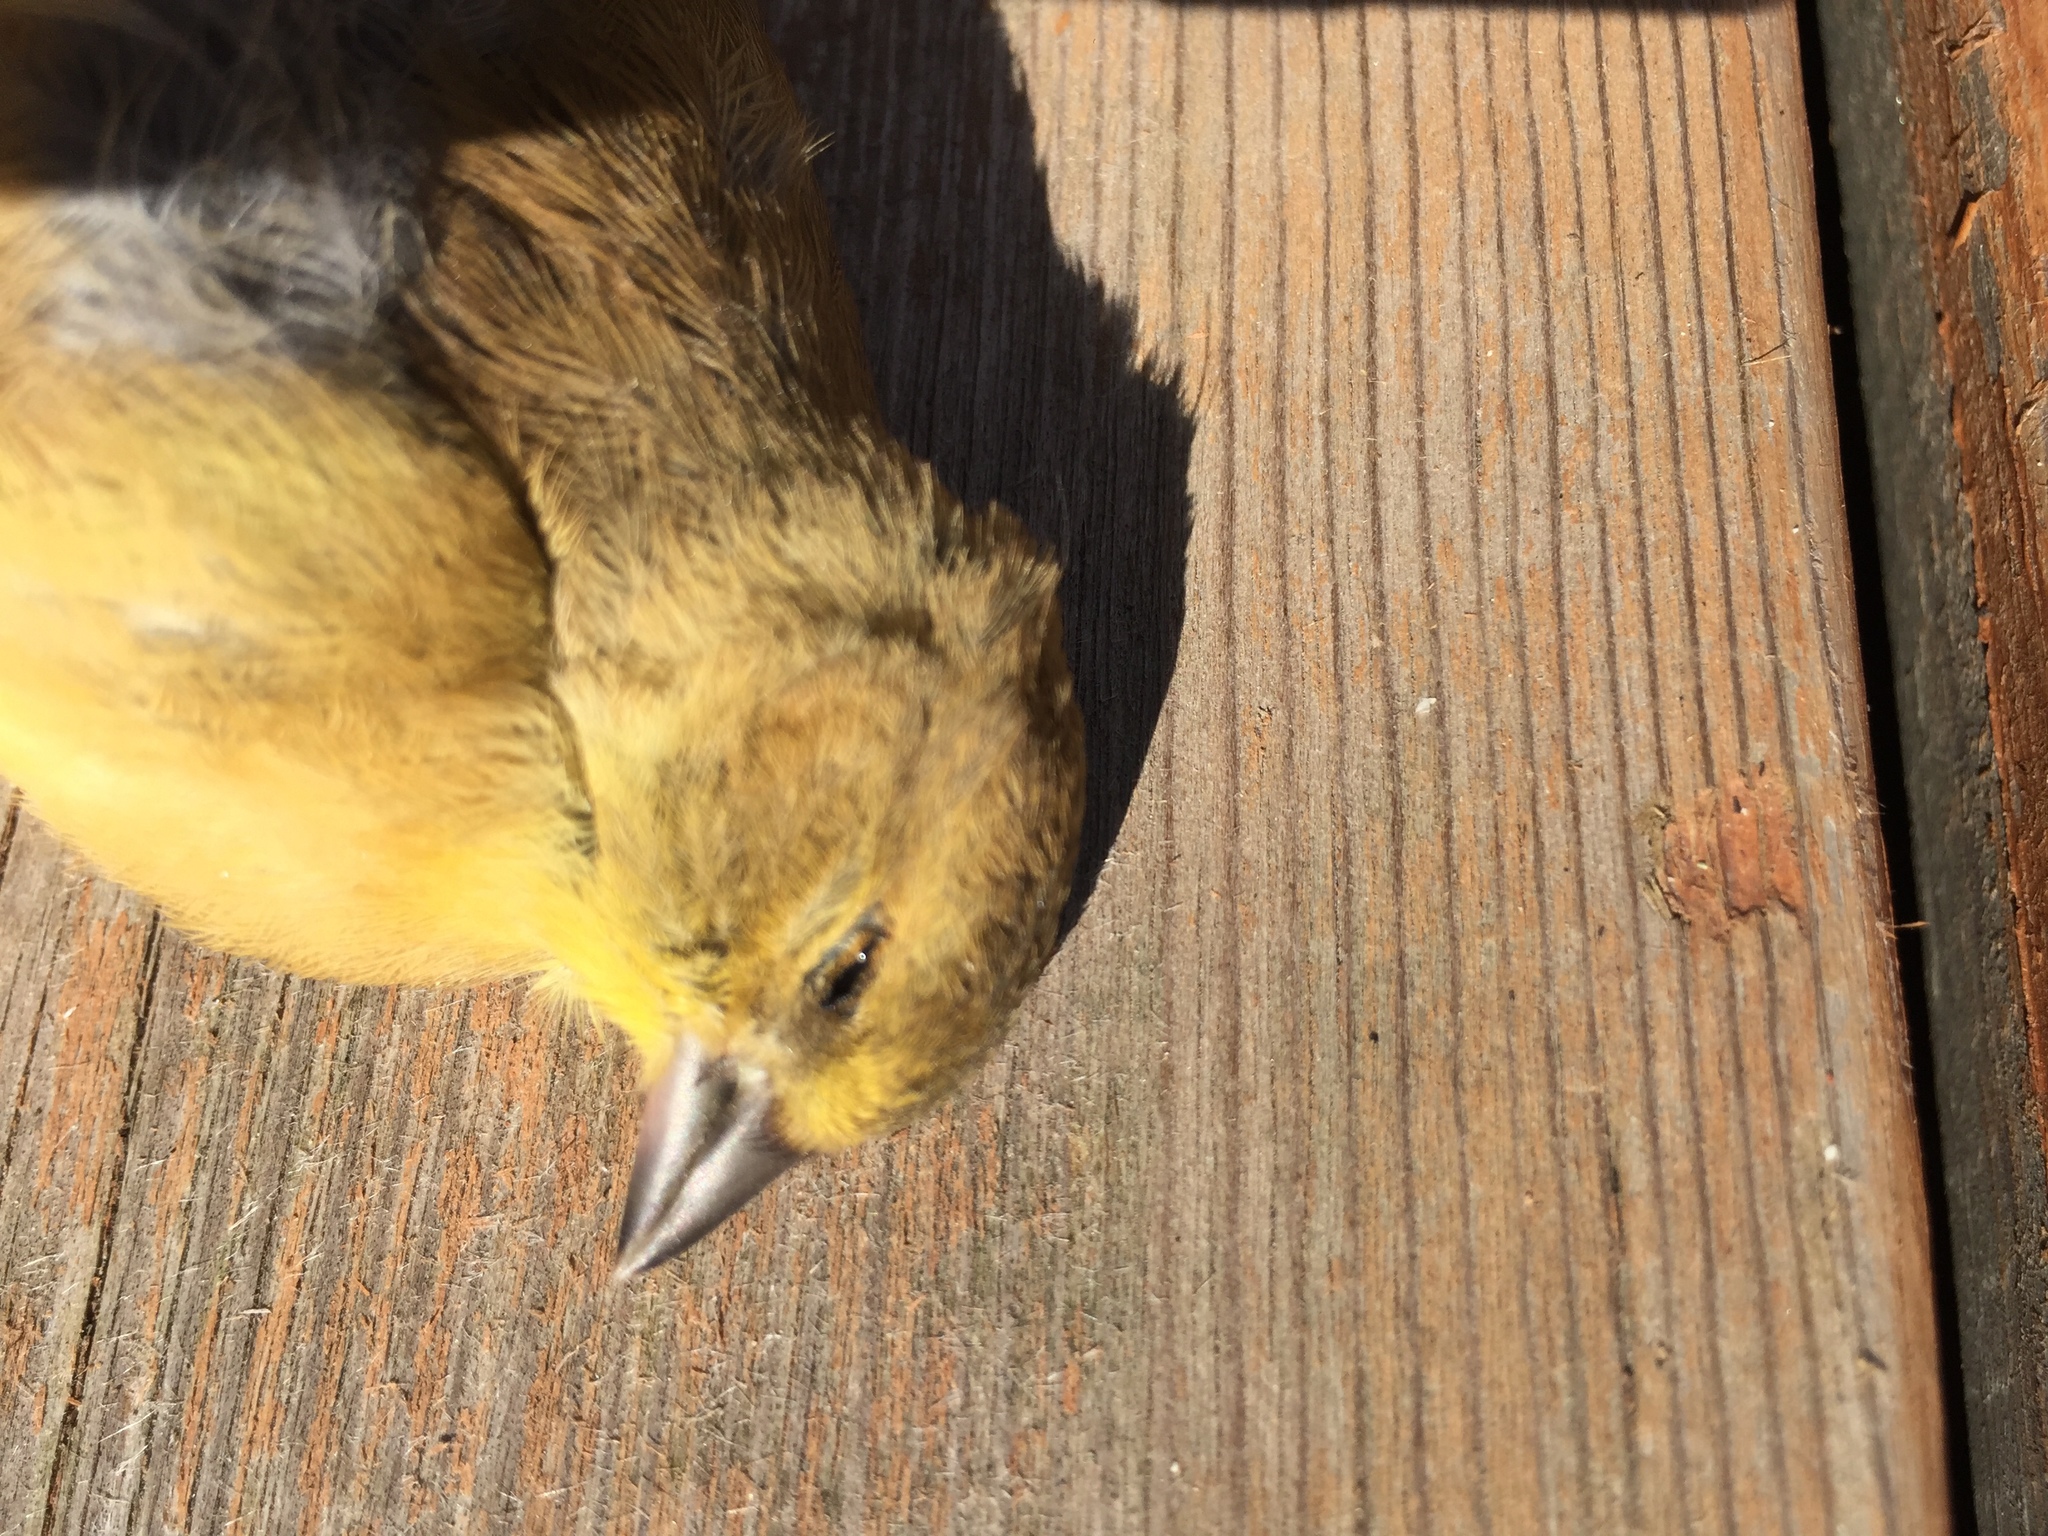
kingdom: Animalia
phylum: Chordata
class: Aves
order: Passeriformes
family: Fringillidae
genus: Spinus
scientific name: Spinus tristis
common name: American goldfinch
